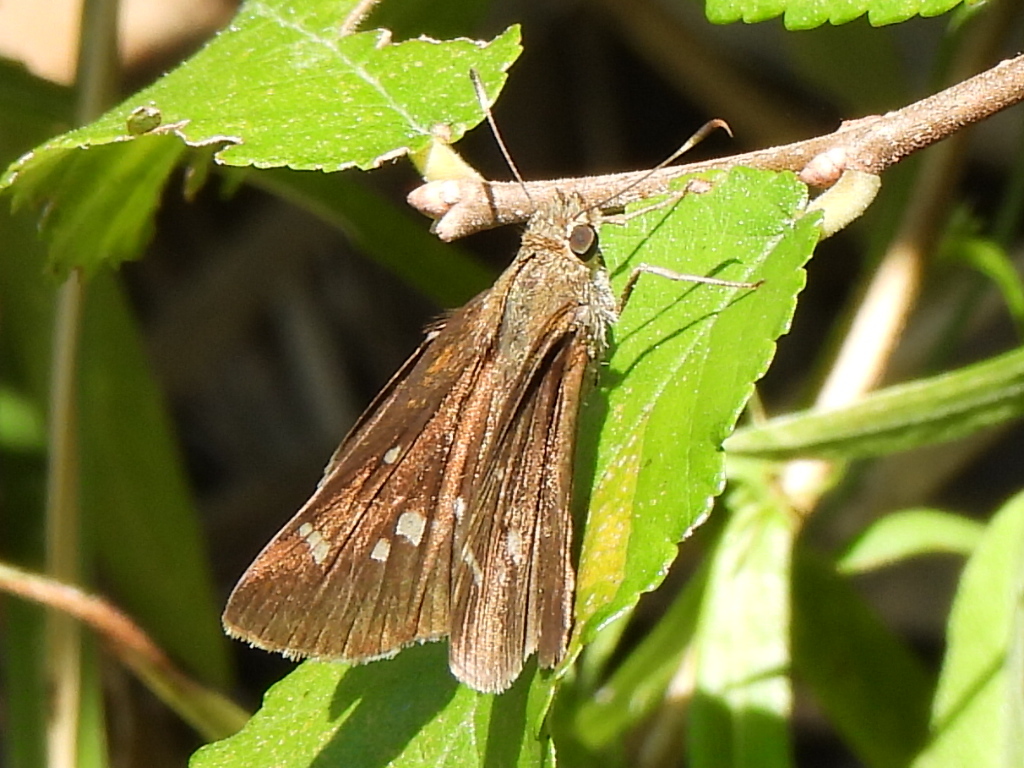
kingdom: Animalia
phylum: Arthropoda
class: Insecta
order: Lepidoptera
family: Hesperiidae
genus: Lerema
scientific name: Lerema accius
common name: Clouded skipper
